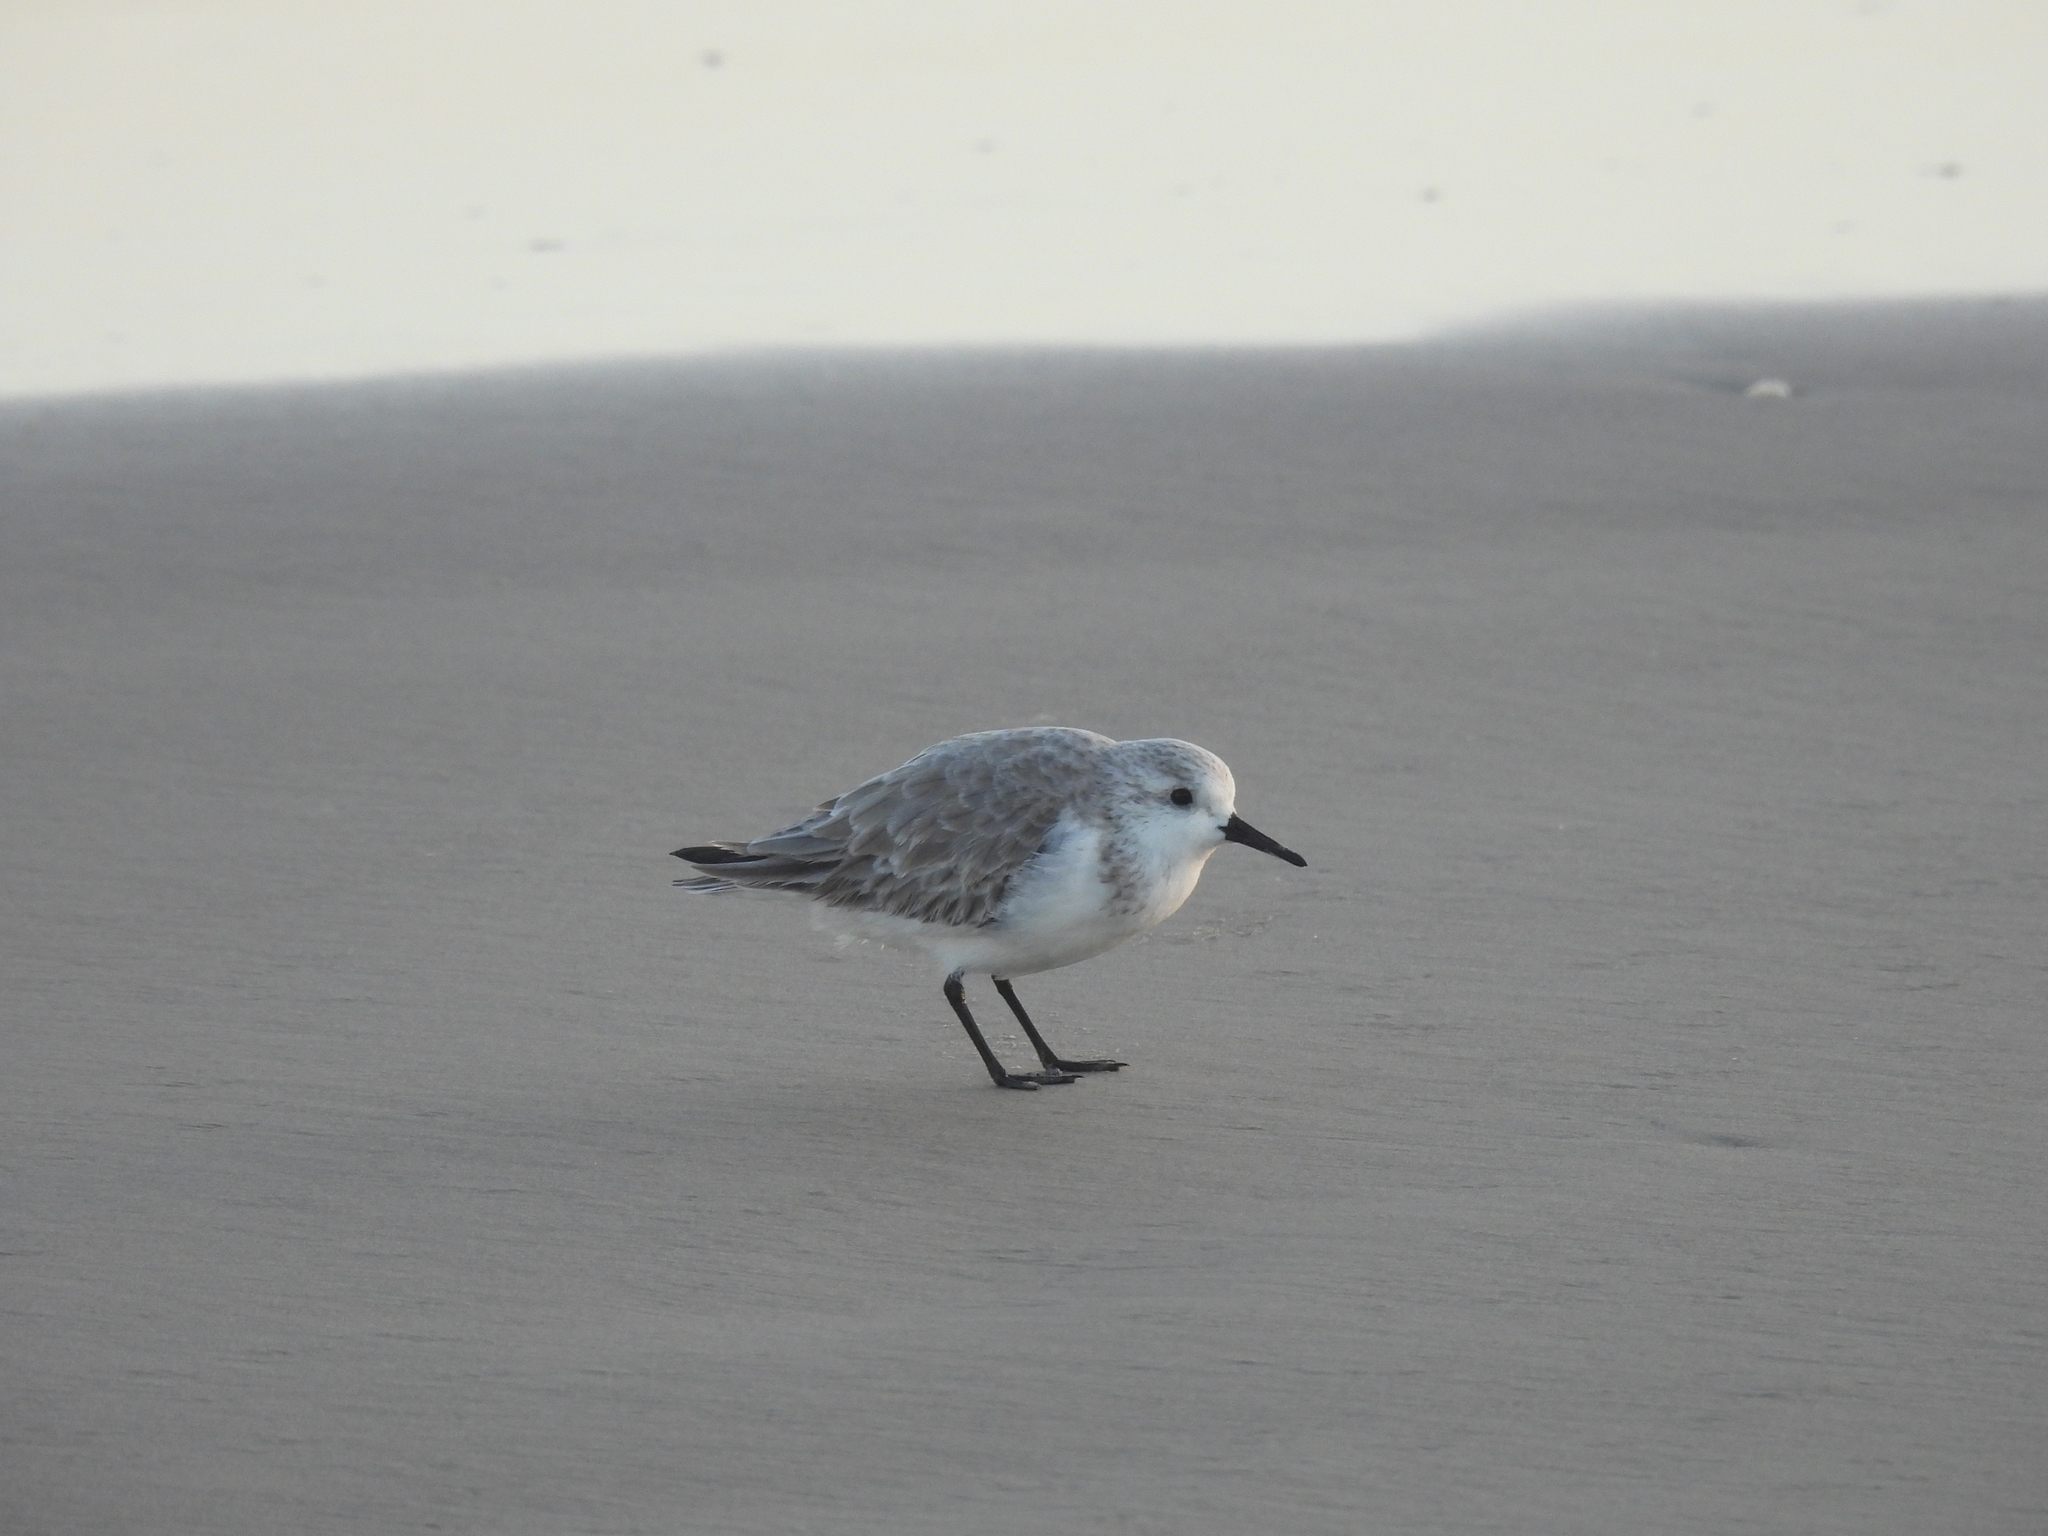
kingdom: Animalia
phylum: Chordata
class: Aves
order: Charadriiformes
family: Scolopacidae
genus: Calidris
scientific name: Calidris alba
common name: Sanderling
